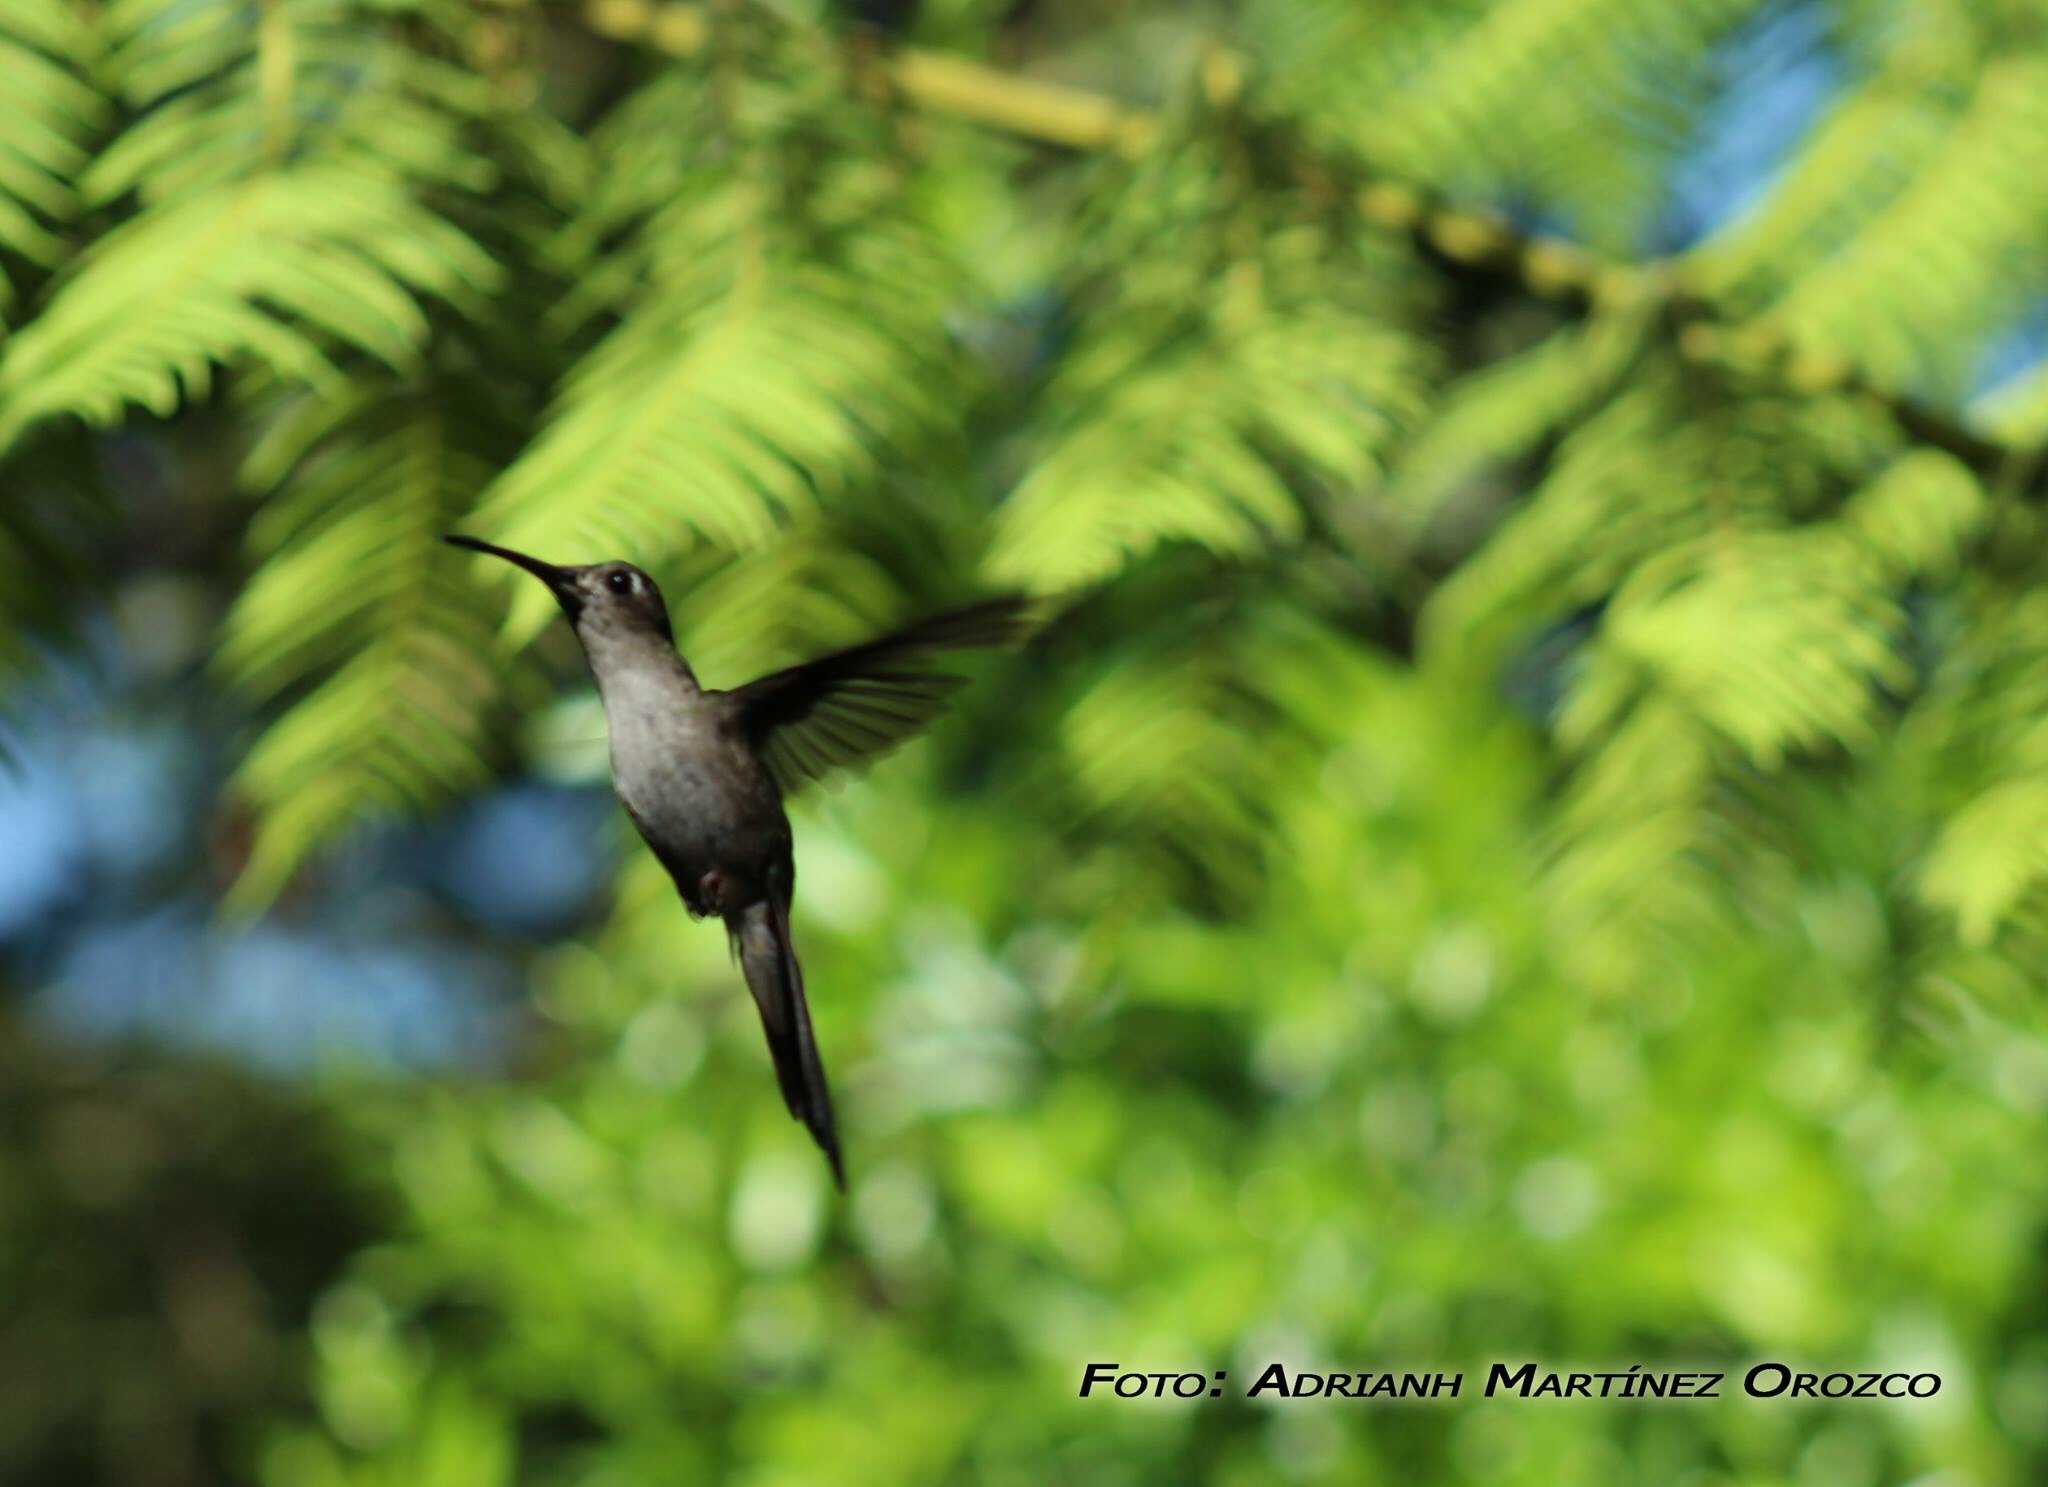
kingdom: Animalia
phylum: Chordata
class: Aves
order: Apodiformes
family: Trochilidae
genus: Pampa
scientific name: Pampa curvipennis
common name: Curve-winged sabrewing
